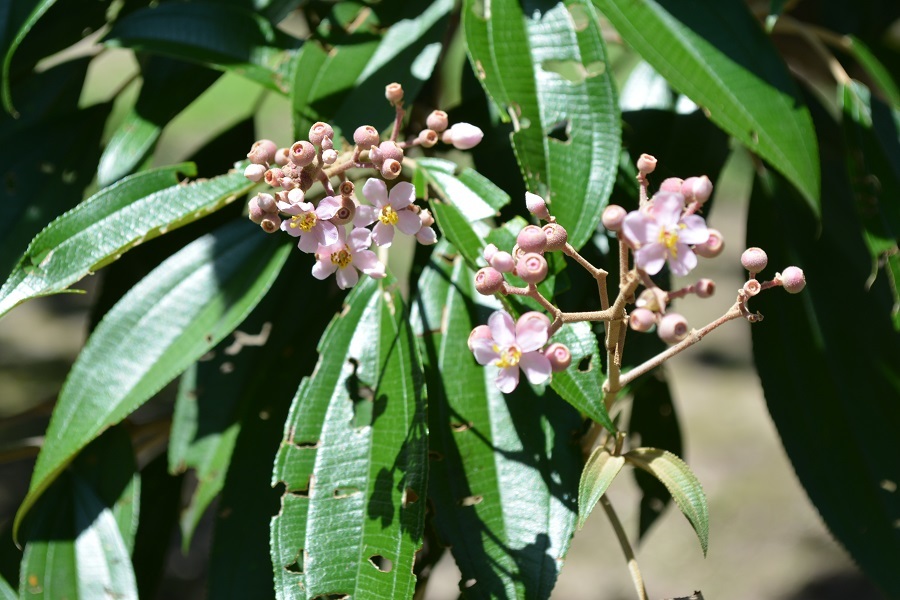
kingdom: Plantae
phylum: Tracheophyta
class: Magnoliopsida
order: Myrtales
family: Melastomataceae
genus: Miconia
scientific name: Miconia xalapensis
